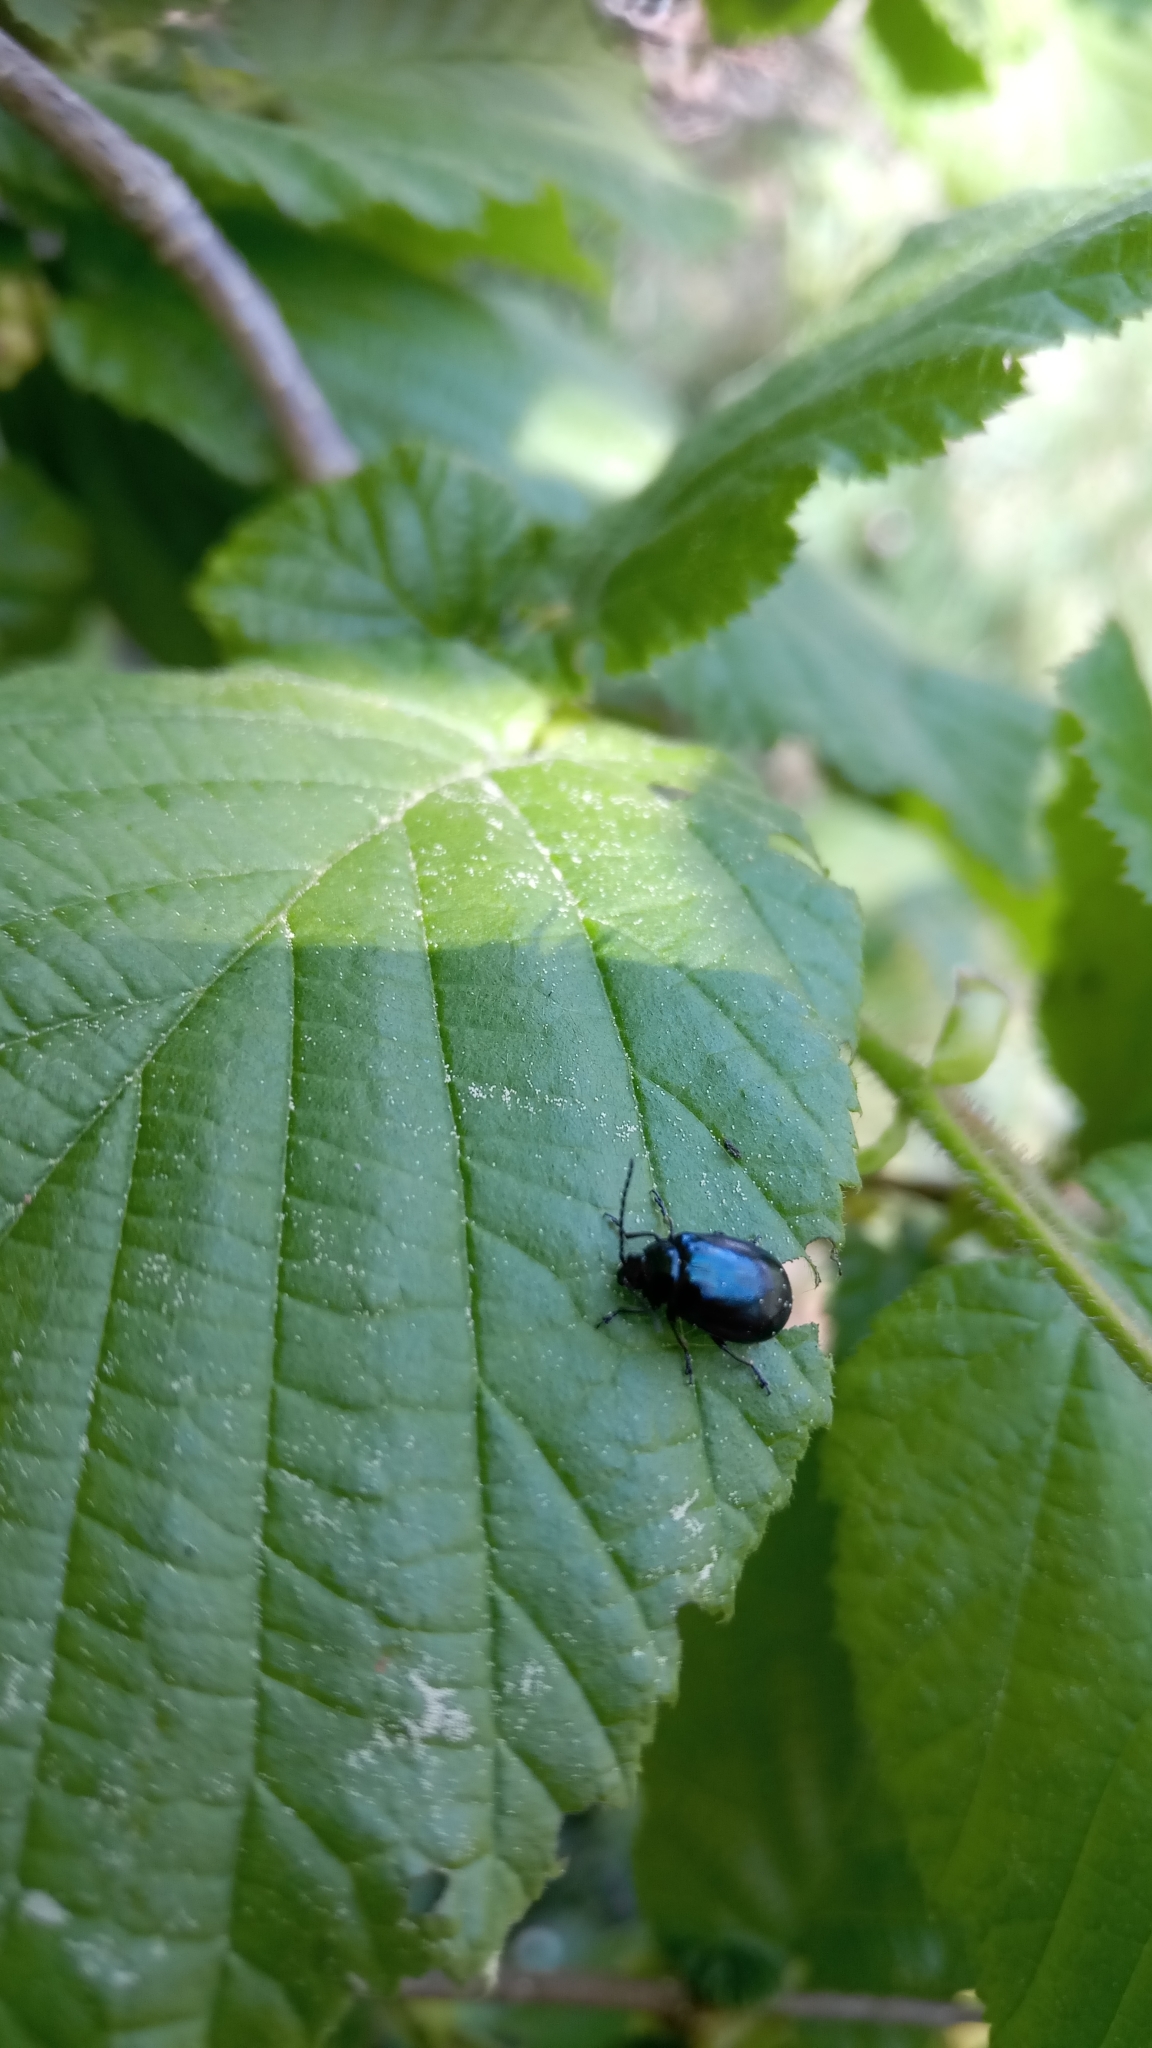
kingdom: Animalia
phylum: Arthropoda
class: Insecta
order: Coleoptera
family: Chrysomelidae
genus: Agelastica
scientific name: Agelastica alni
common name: Alder leaf beetle
